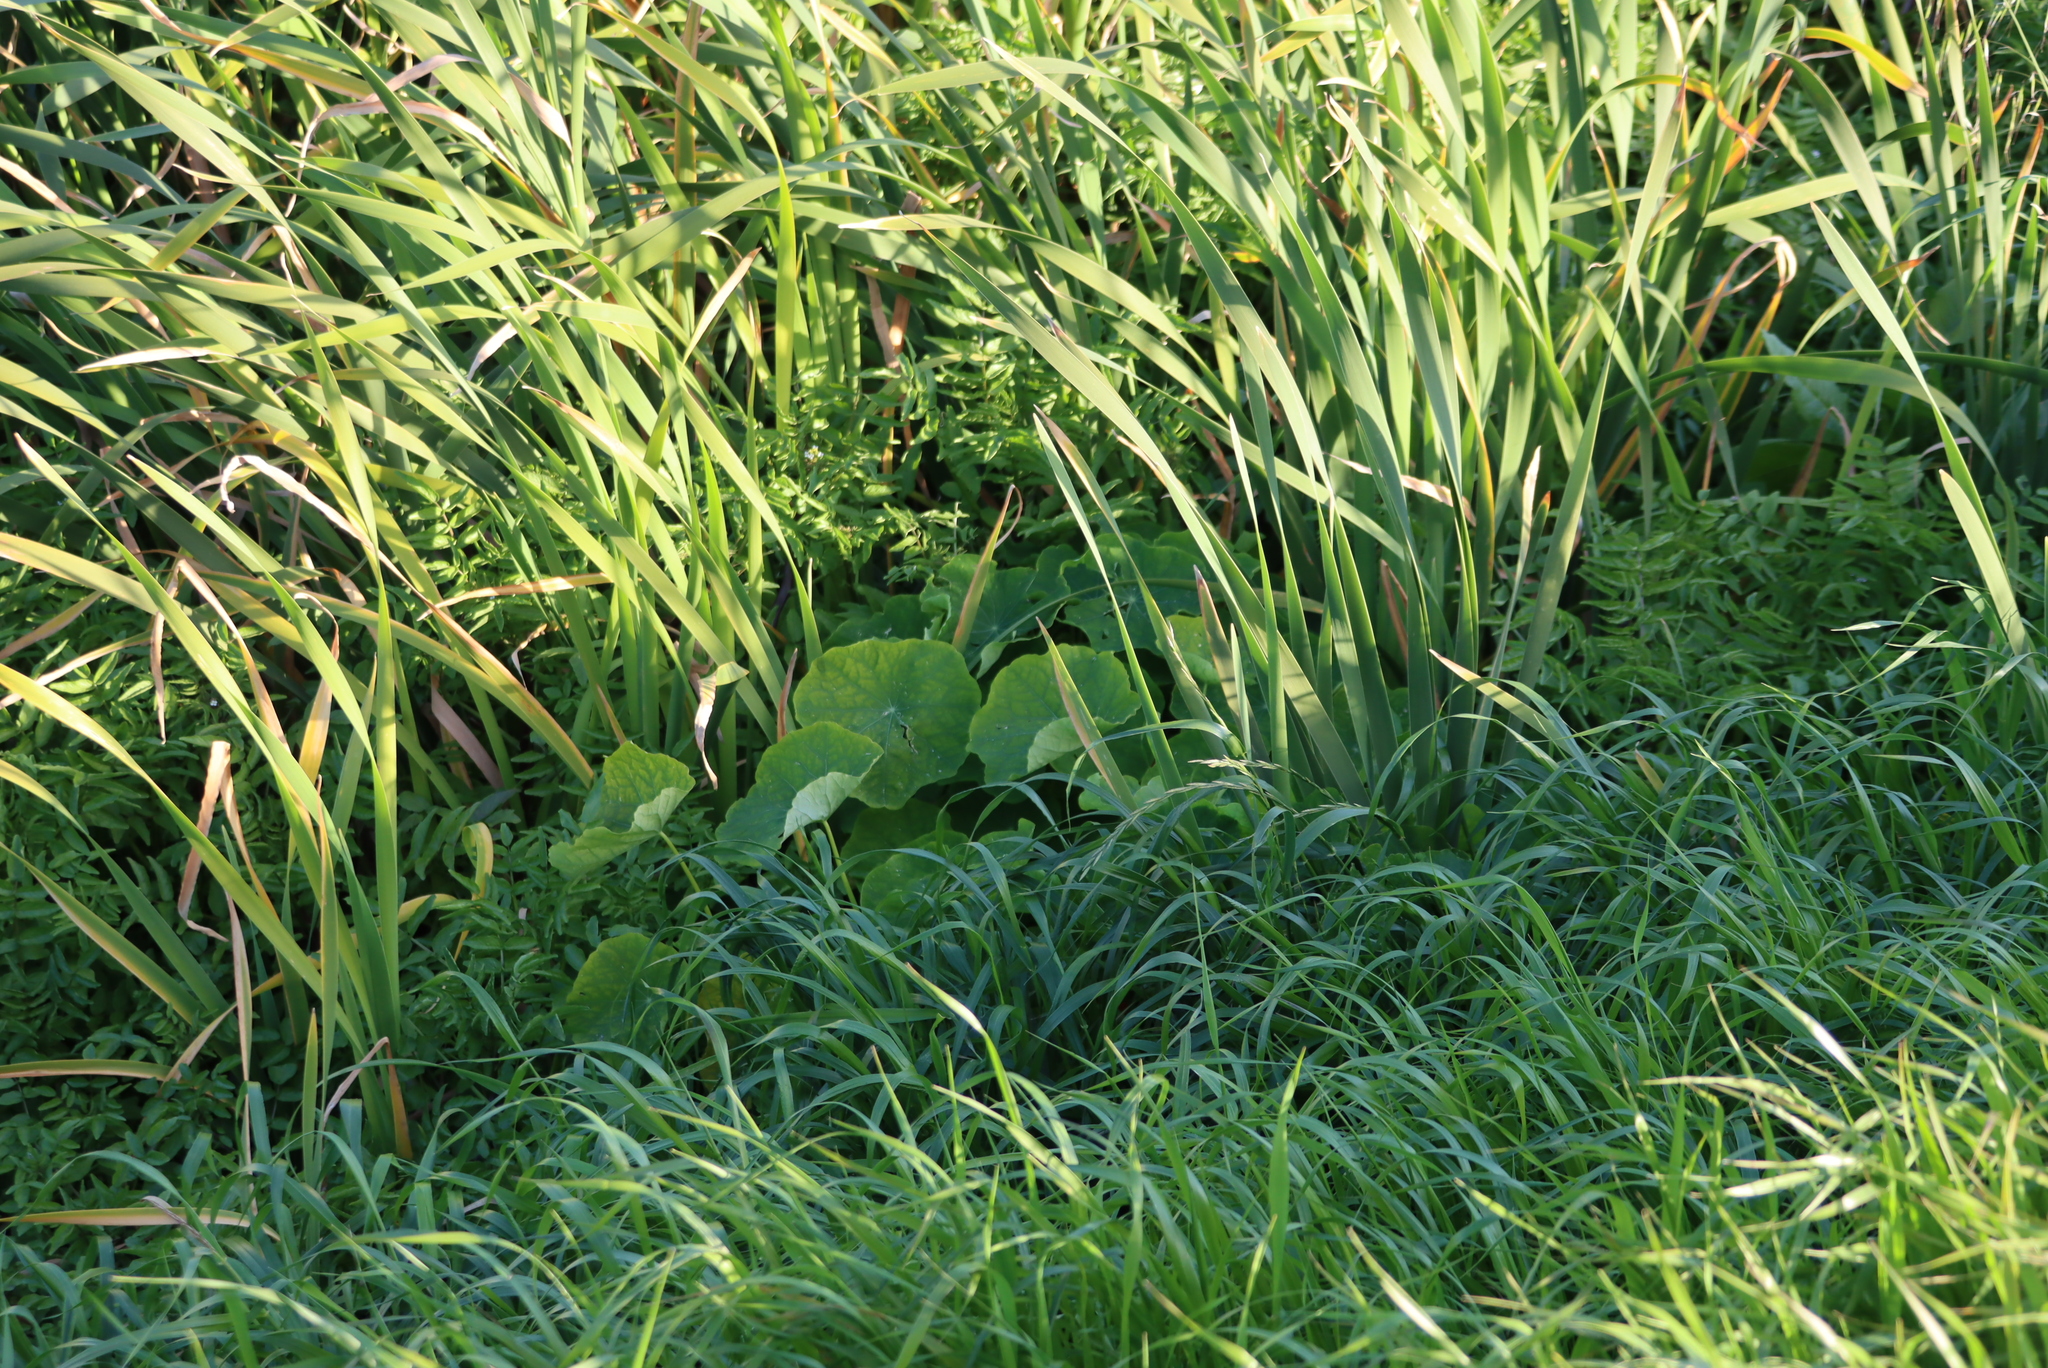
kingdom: Plantae
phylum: Tracheophyta
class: Magnoliopsida
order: Brassicales
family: Tropaeolaceae
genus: Tropaeolum
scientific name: Tropaeolum majus
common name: Nasturtium
